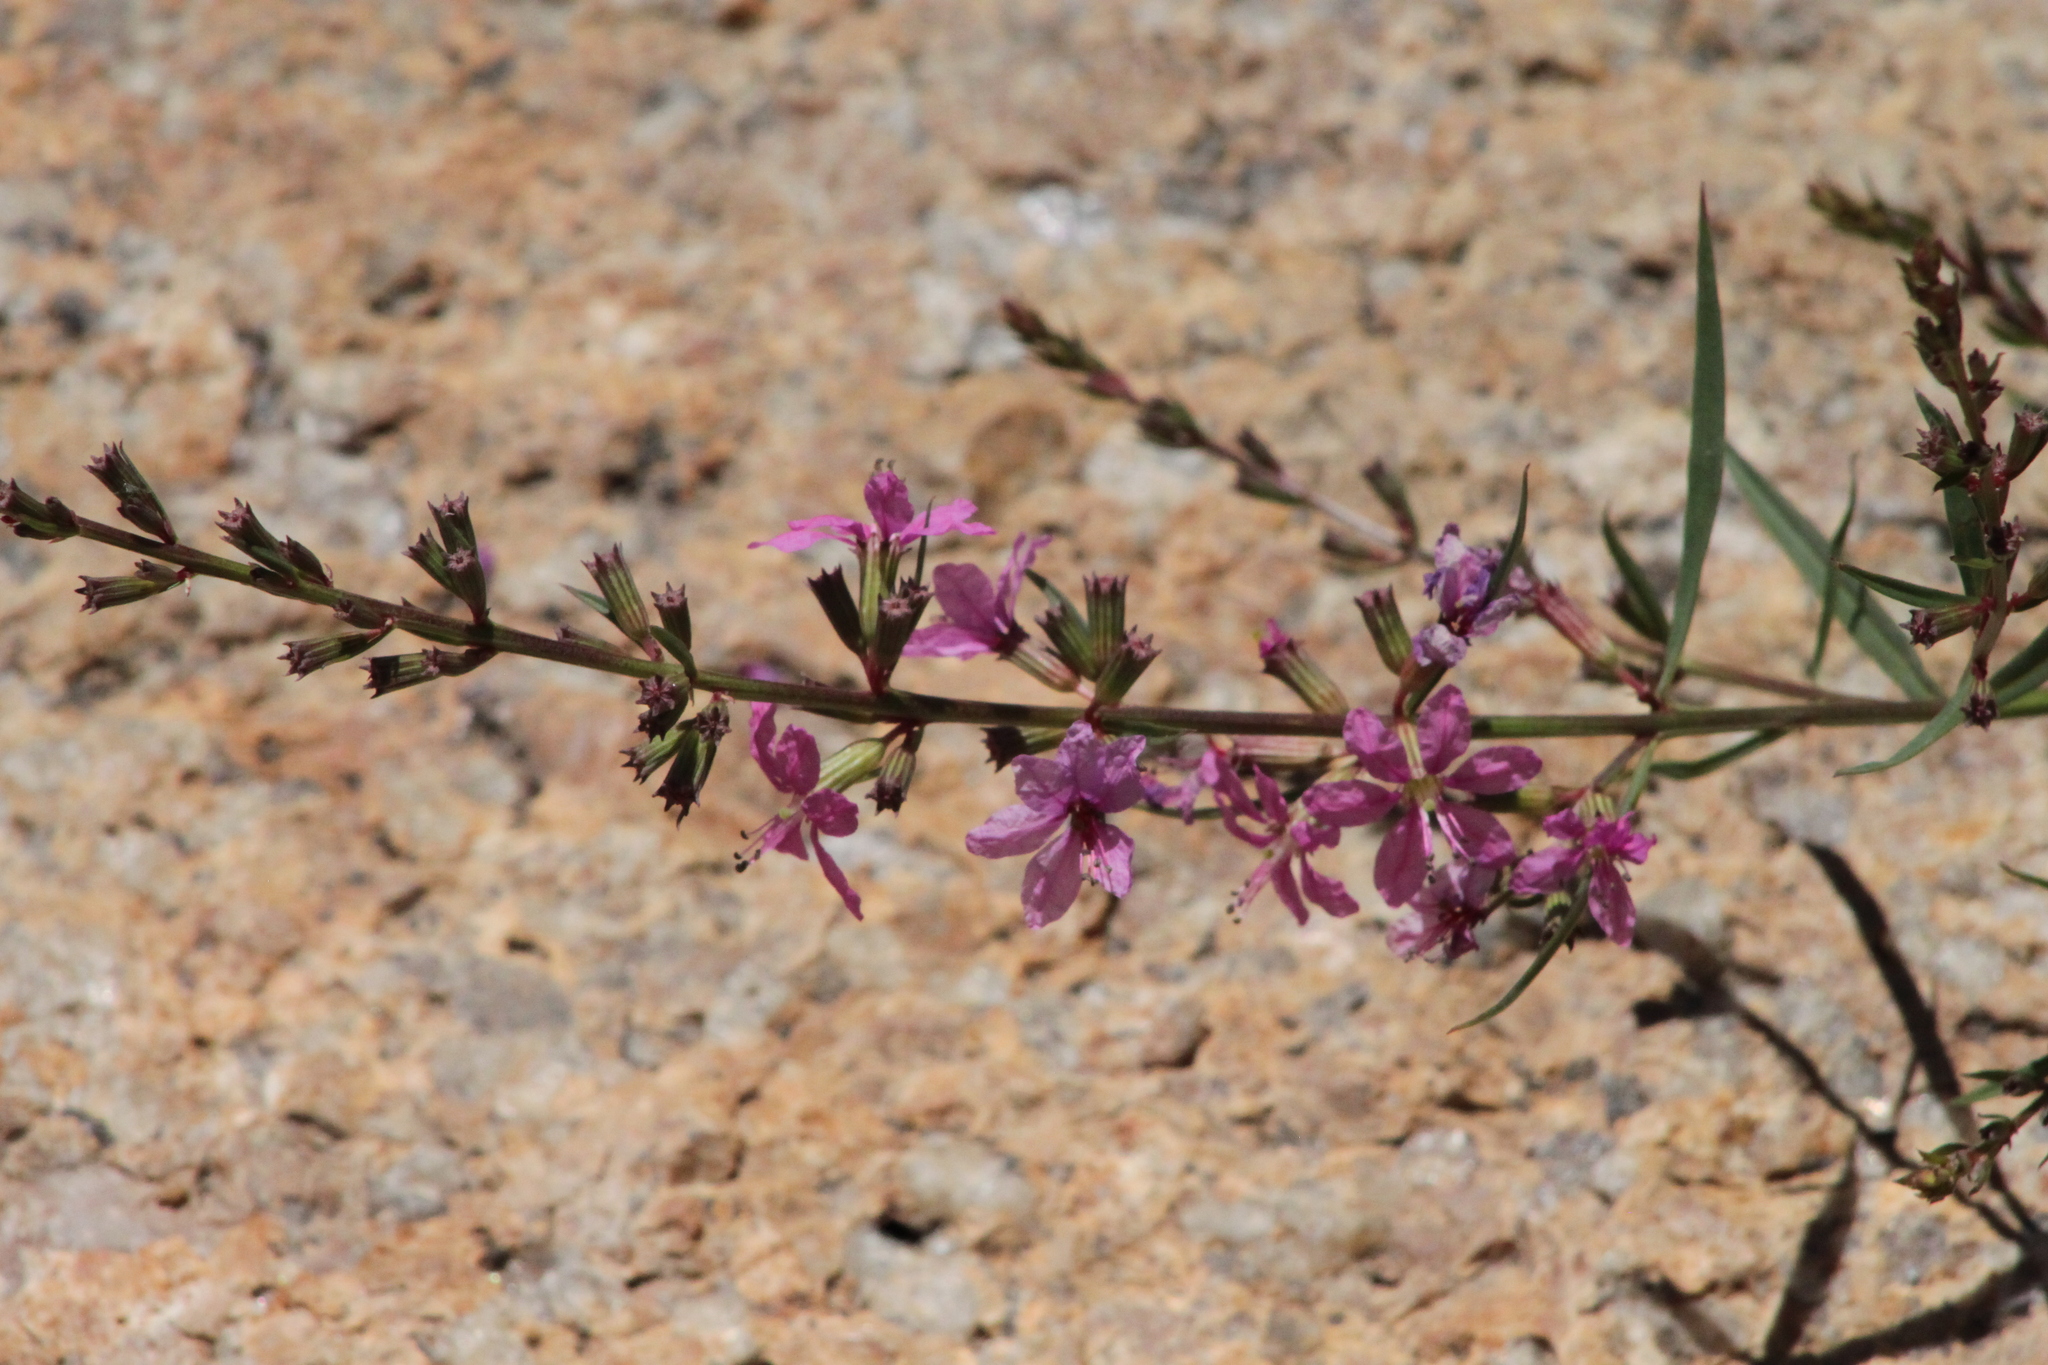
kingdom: Plantae
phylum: Tracheophyta
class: Magnoliopsida
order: Myrtales
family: Lythraceae
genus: Lythrum
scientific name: Lythrum virgatum
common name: European wand loosestrife
